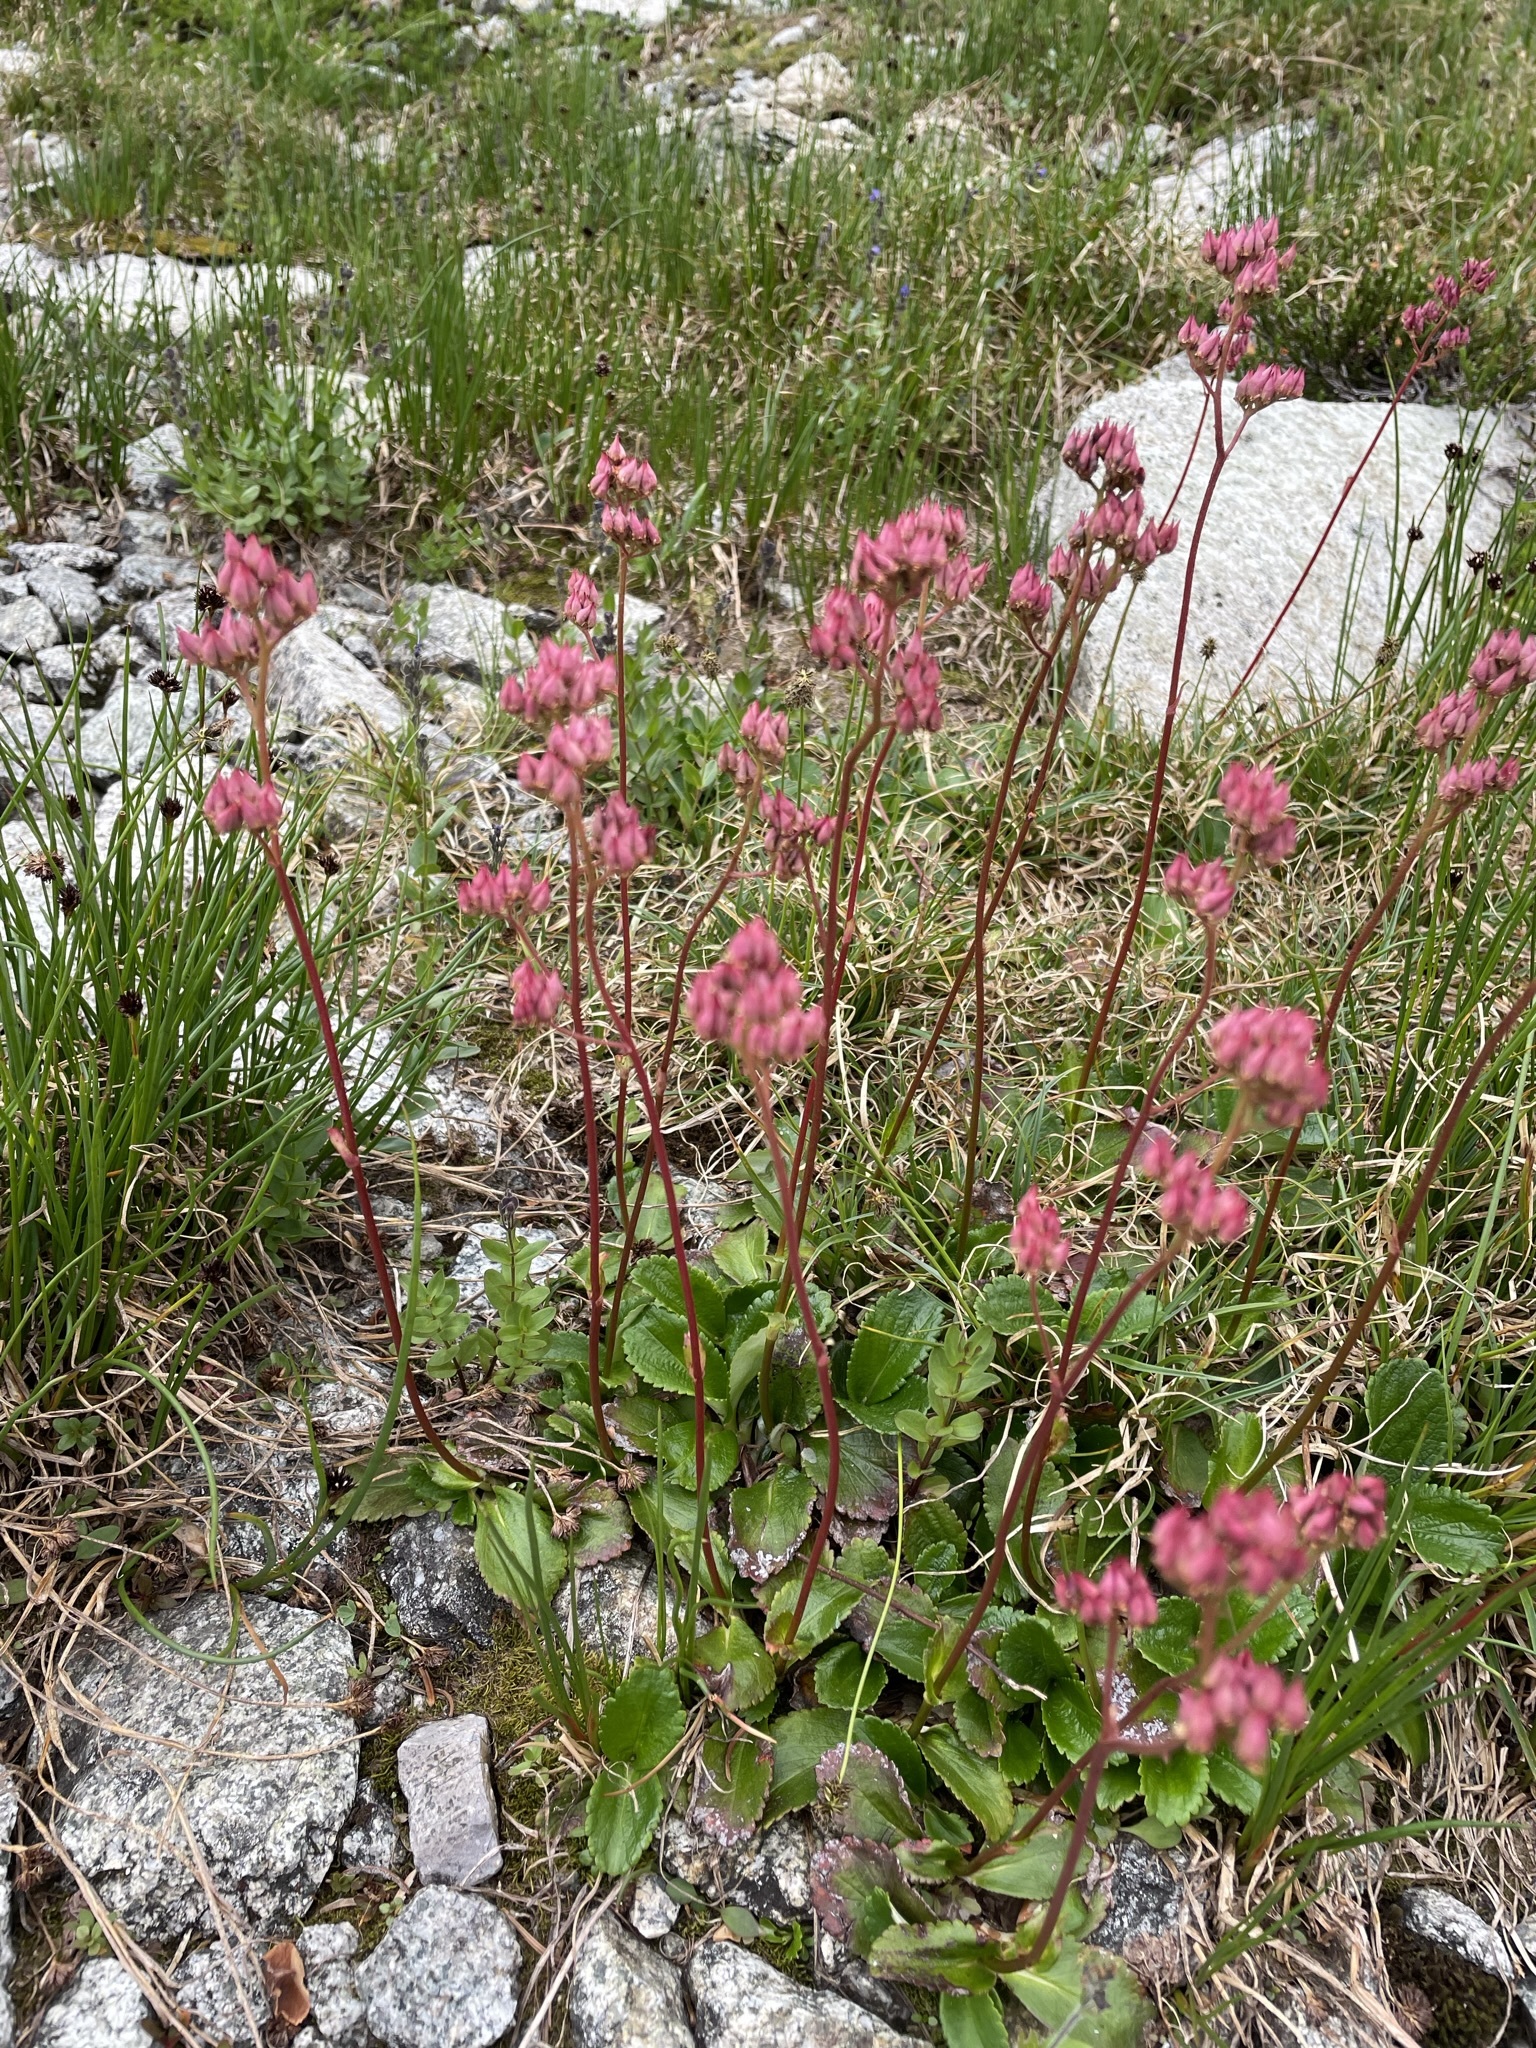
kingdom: Plantae
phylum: Tracheophyta
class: Magnoliopsida
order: Saxifragales
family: Saxifragaceae
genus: Leptarrhena
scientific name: Leptarrhena pyrolifolia
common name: Leatherleaf-saxifrage
